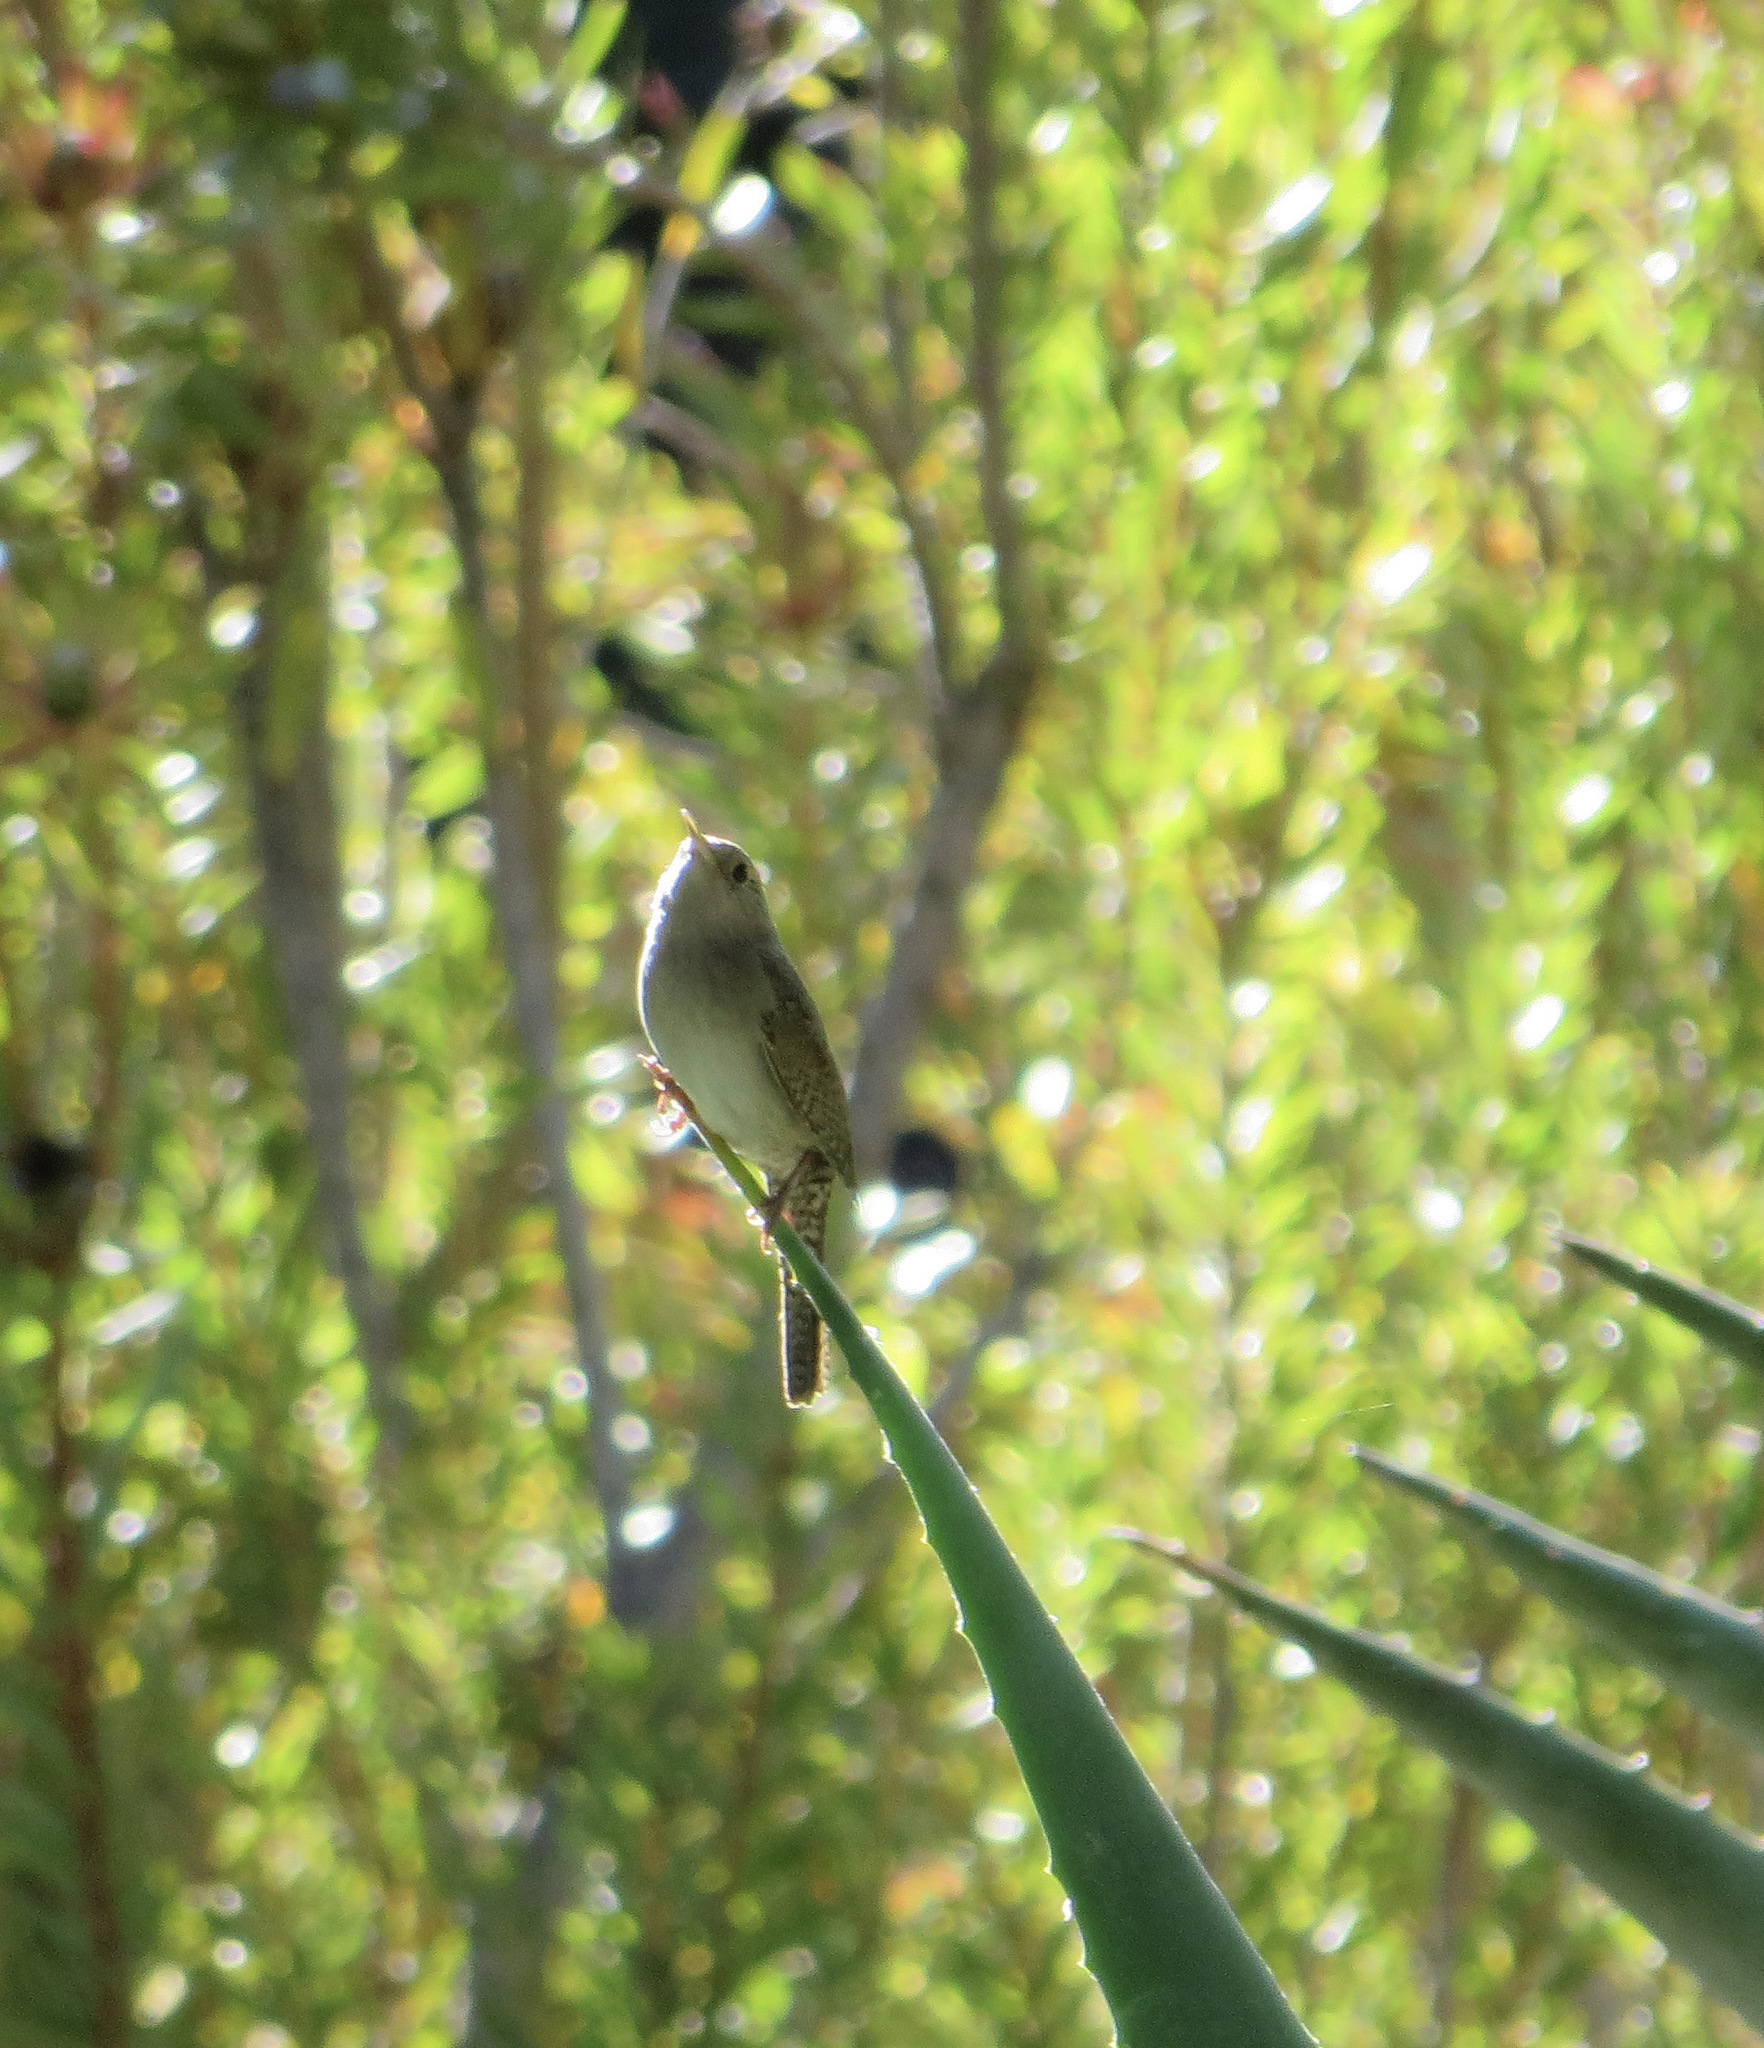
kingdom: Animalia
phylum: Chordata
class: Aves
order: Passeriformes
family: Troglodytidae
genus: Troglodytes
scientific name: Troglodytes aedon
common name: House wren
